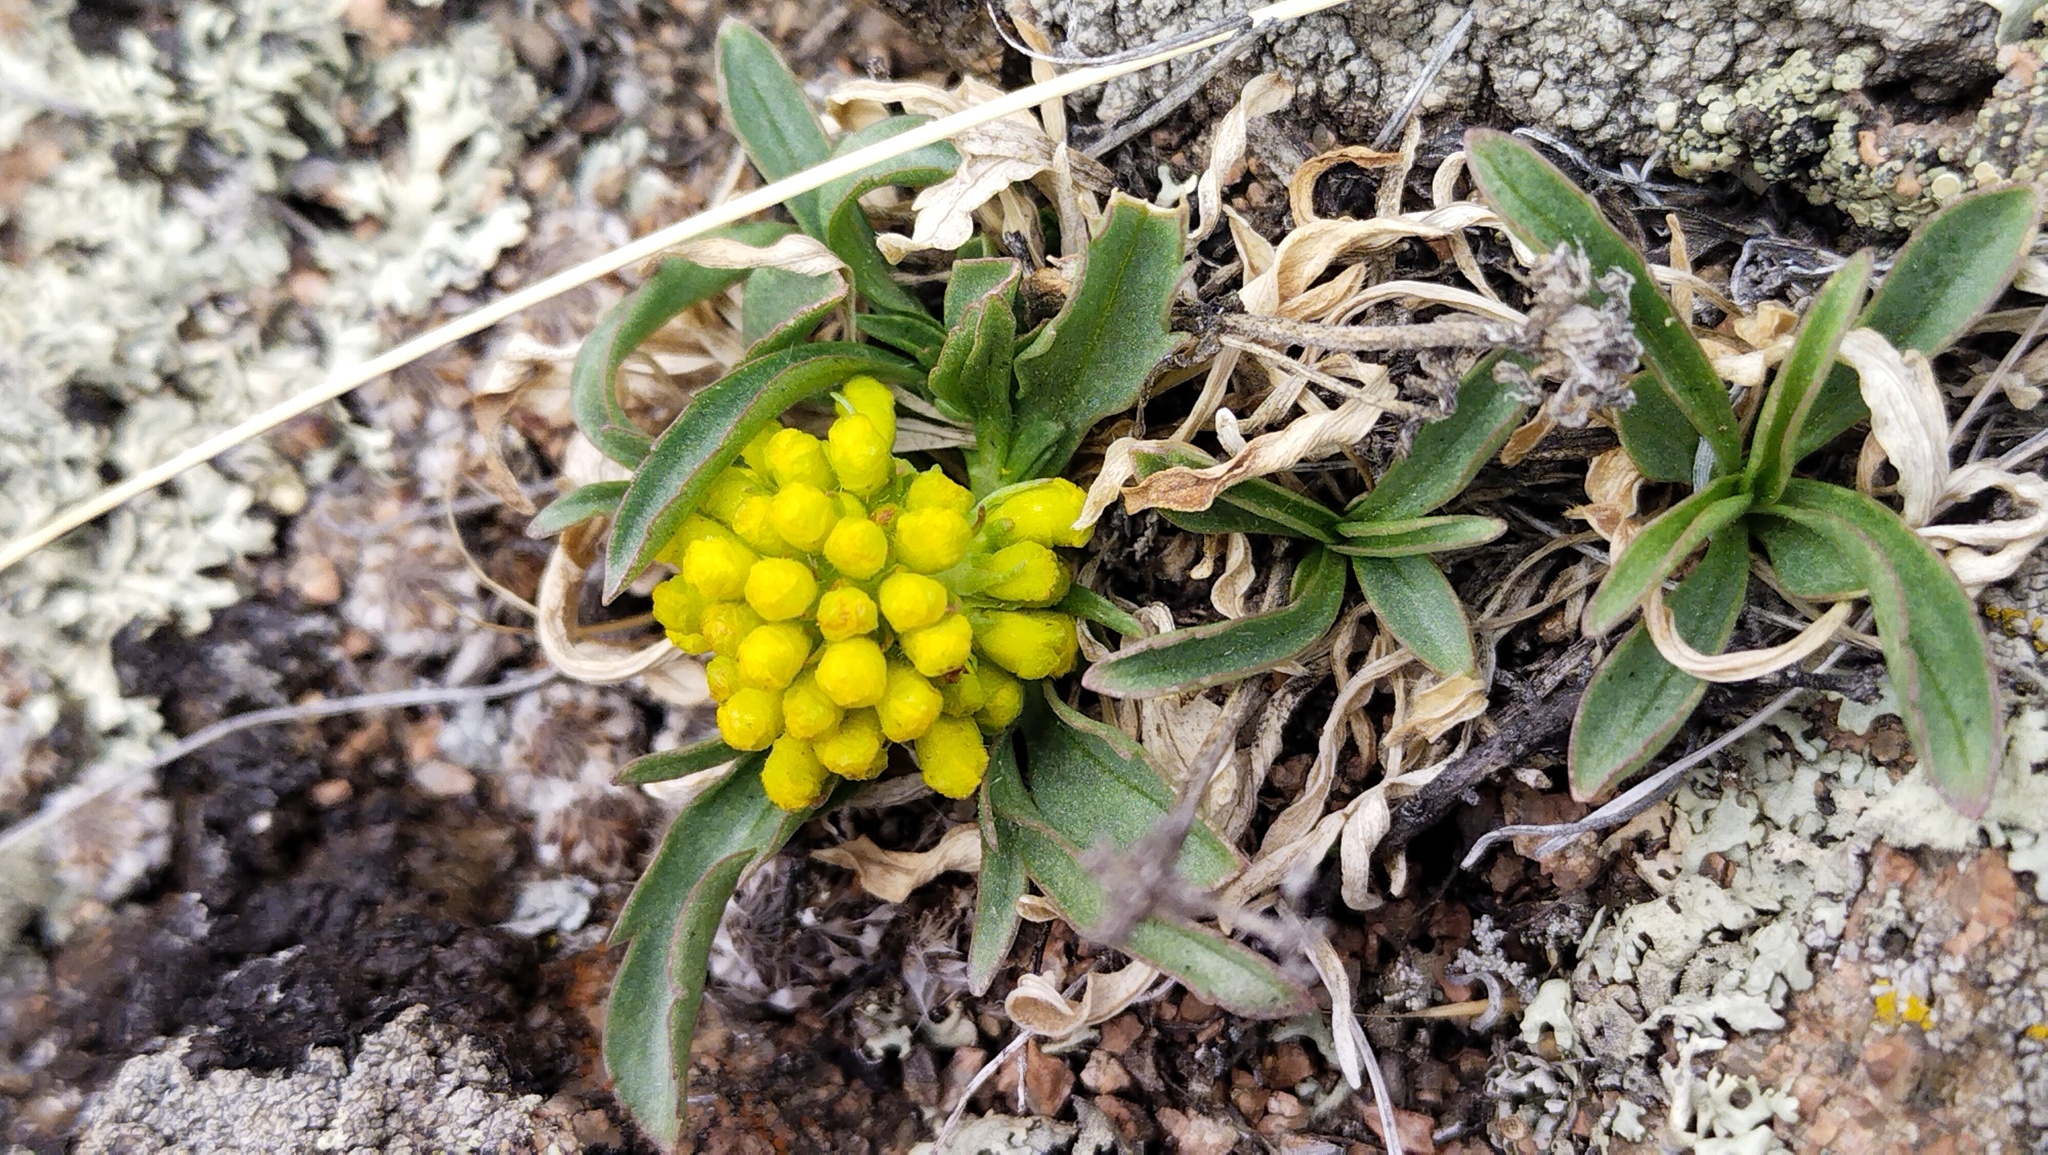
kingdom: Plantae
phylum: Tracheophyta
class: Magnoliopsida
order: Dipsacales
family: Caprifoliaceae
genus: Patrinia
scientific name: Patrinia sibirica
